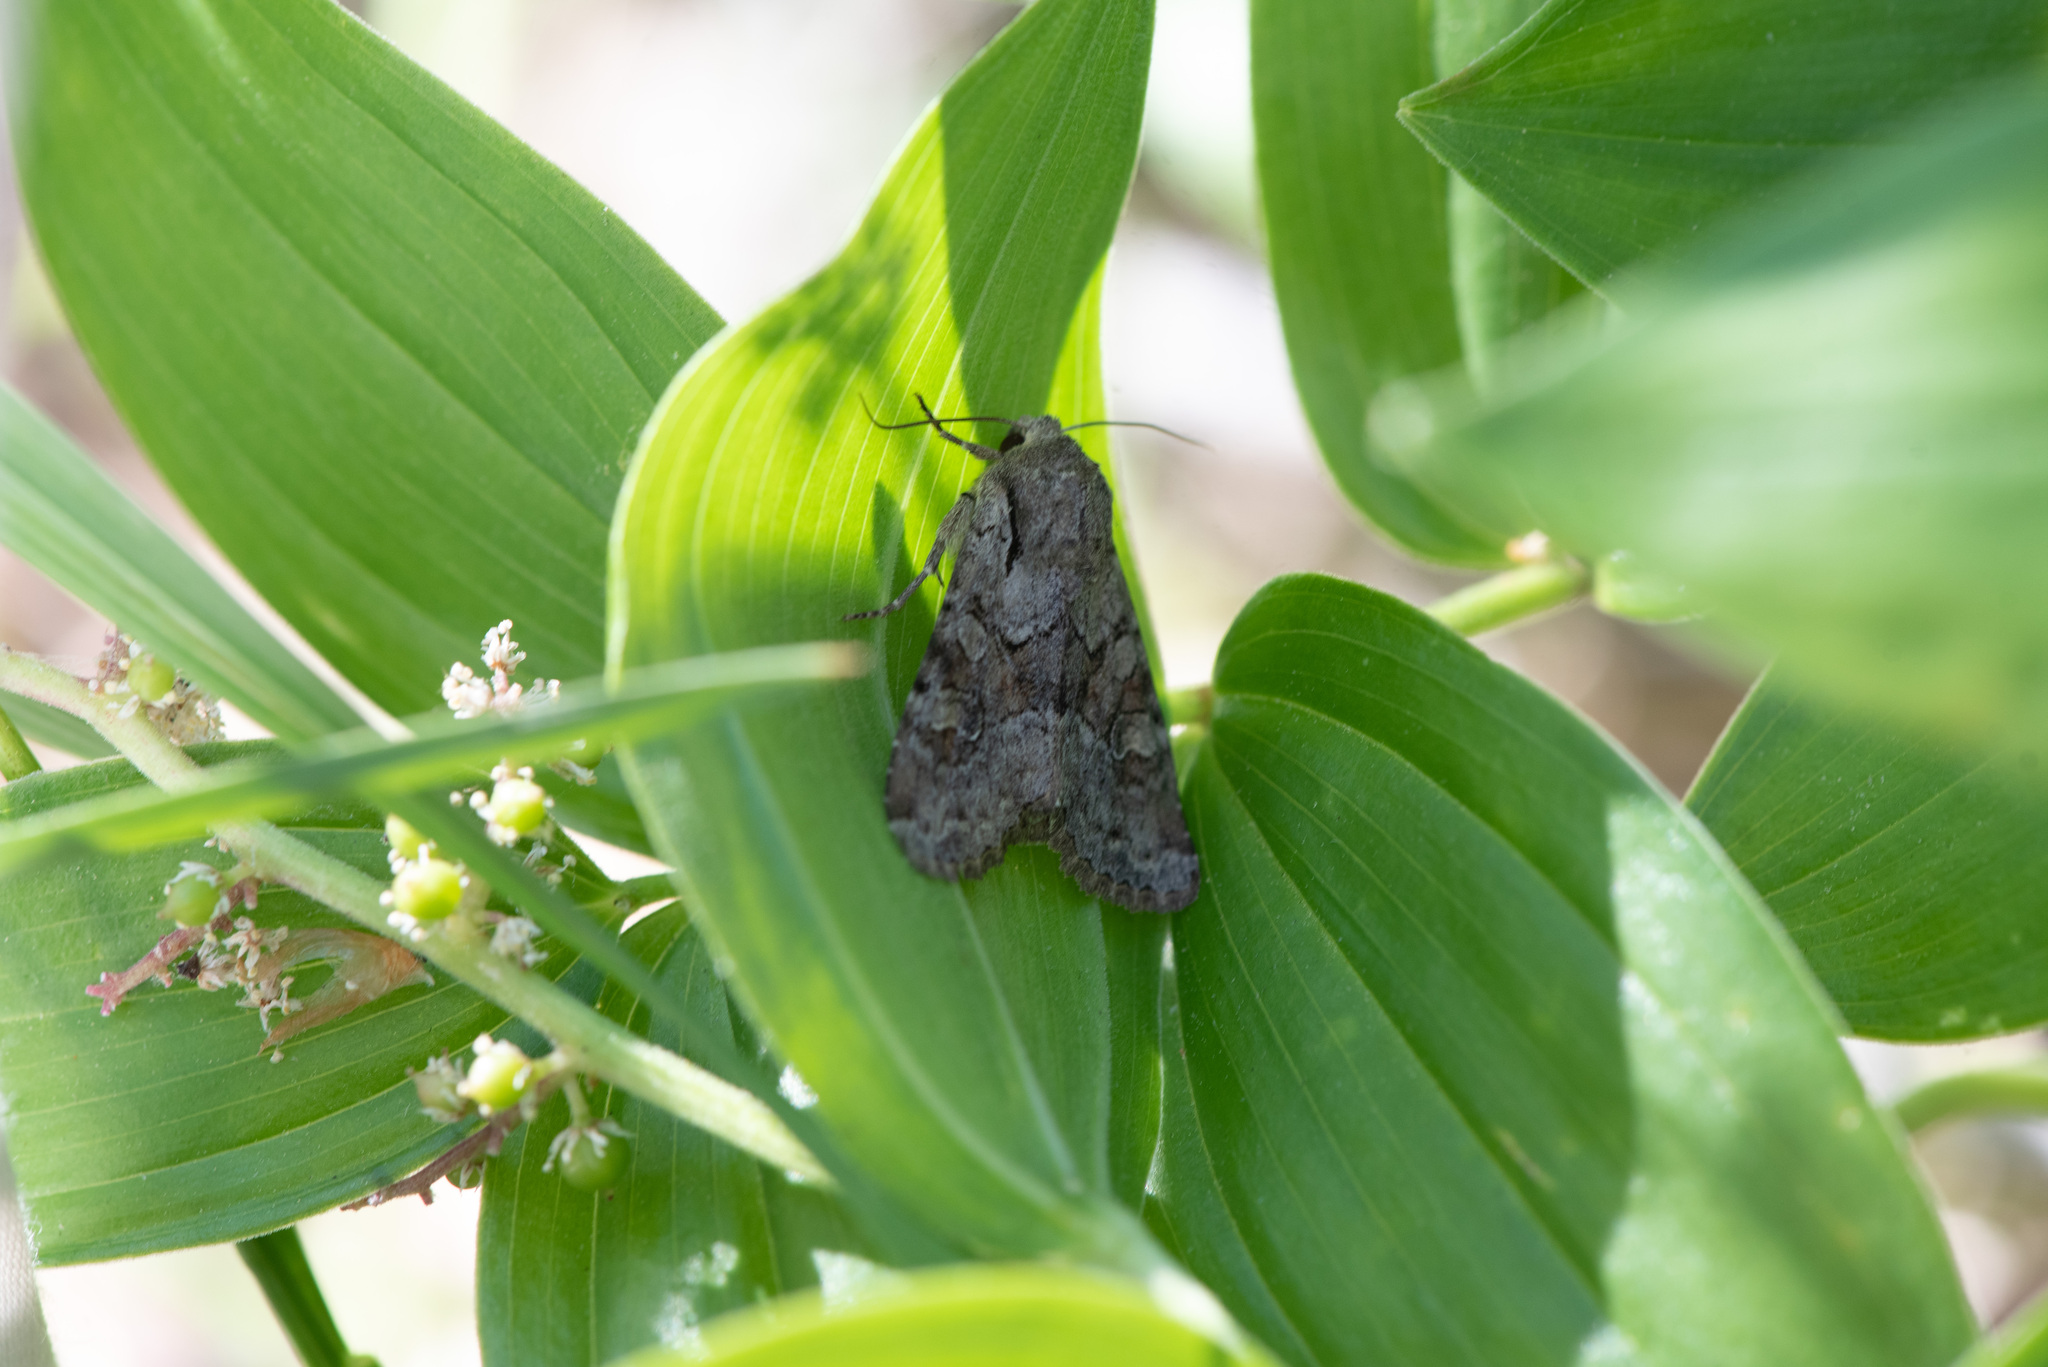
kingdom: Animalia
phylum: Arthropoda
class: Insecta
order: Lepidoptera
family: Noctuidae
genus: Apamea
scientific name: Apamea sordens
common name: Rustic shoulder-knot
